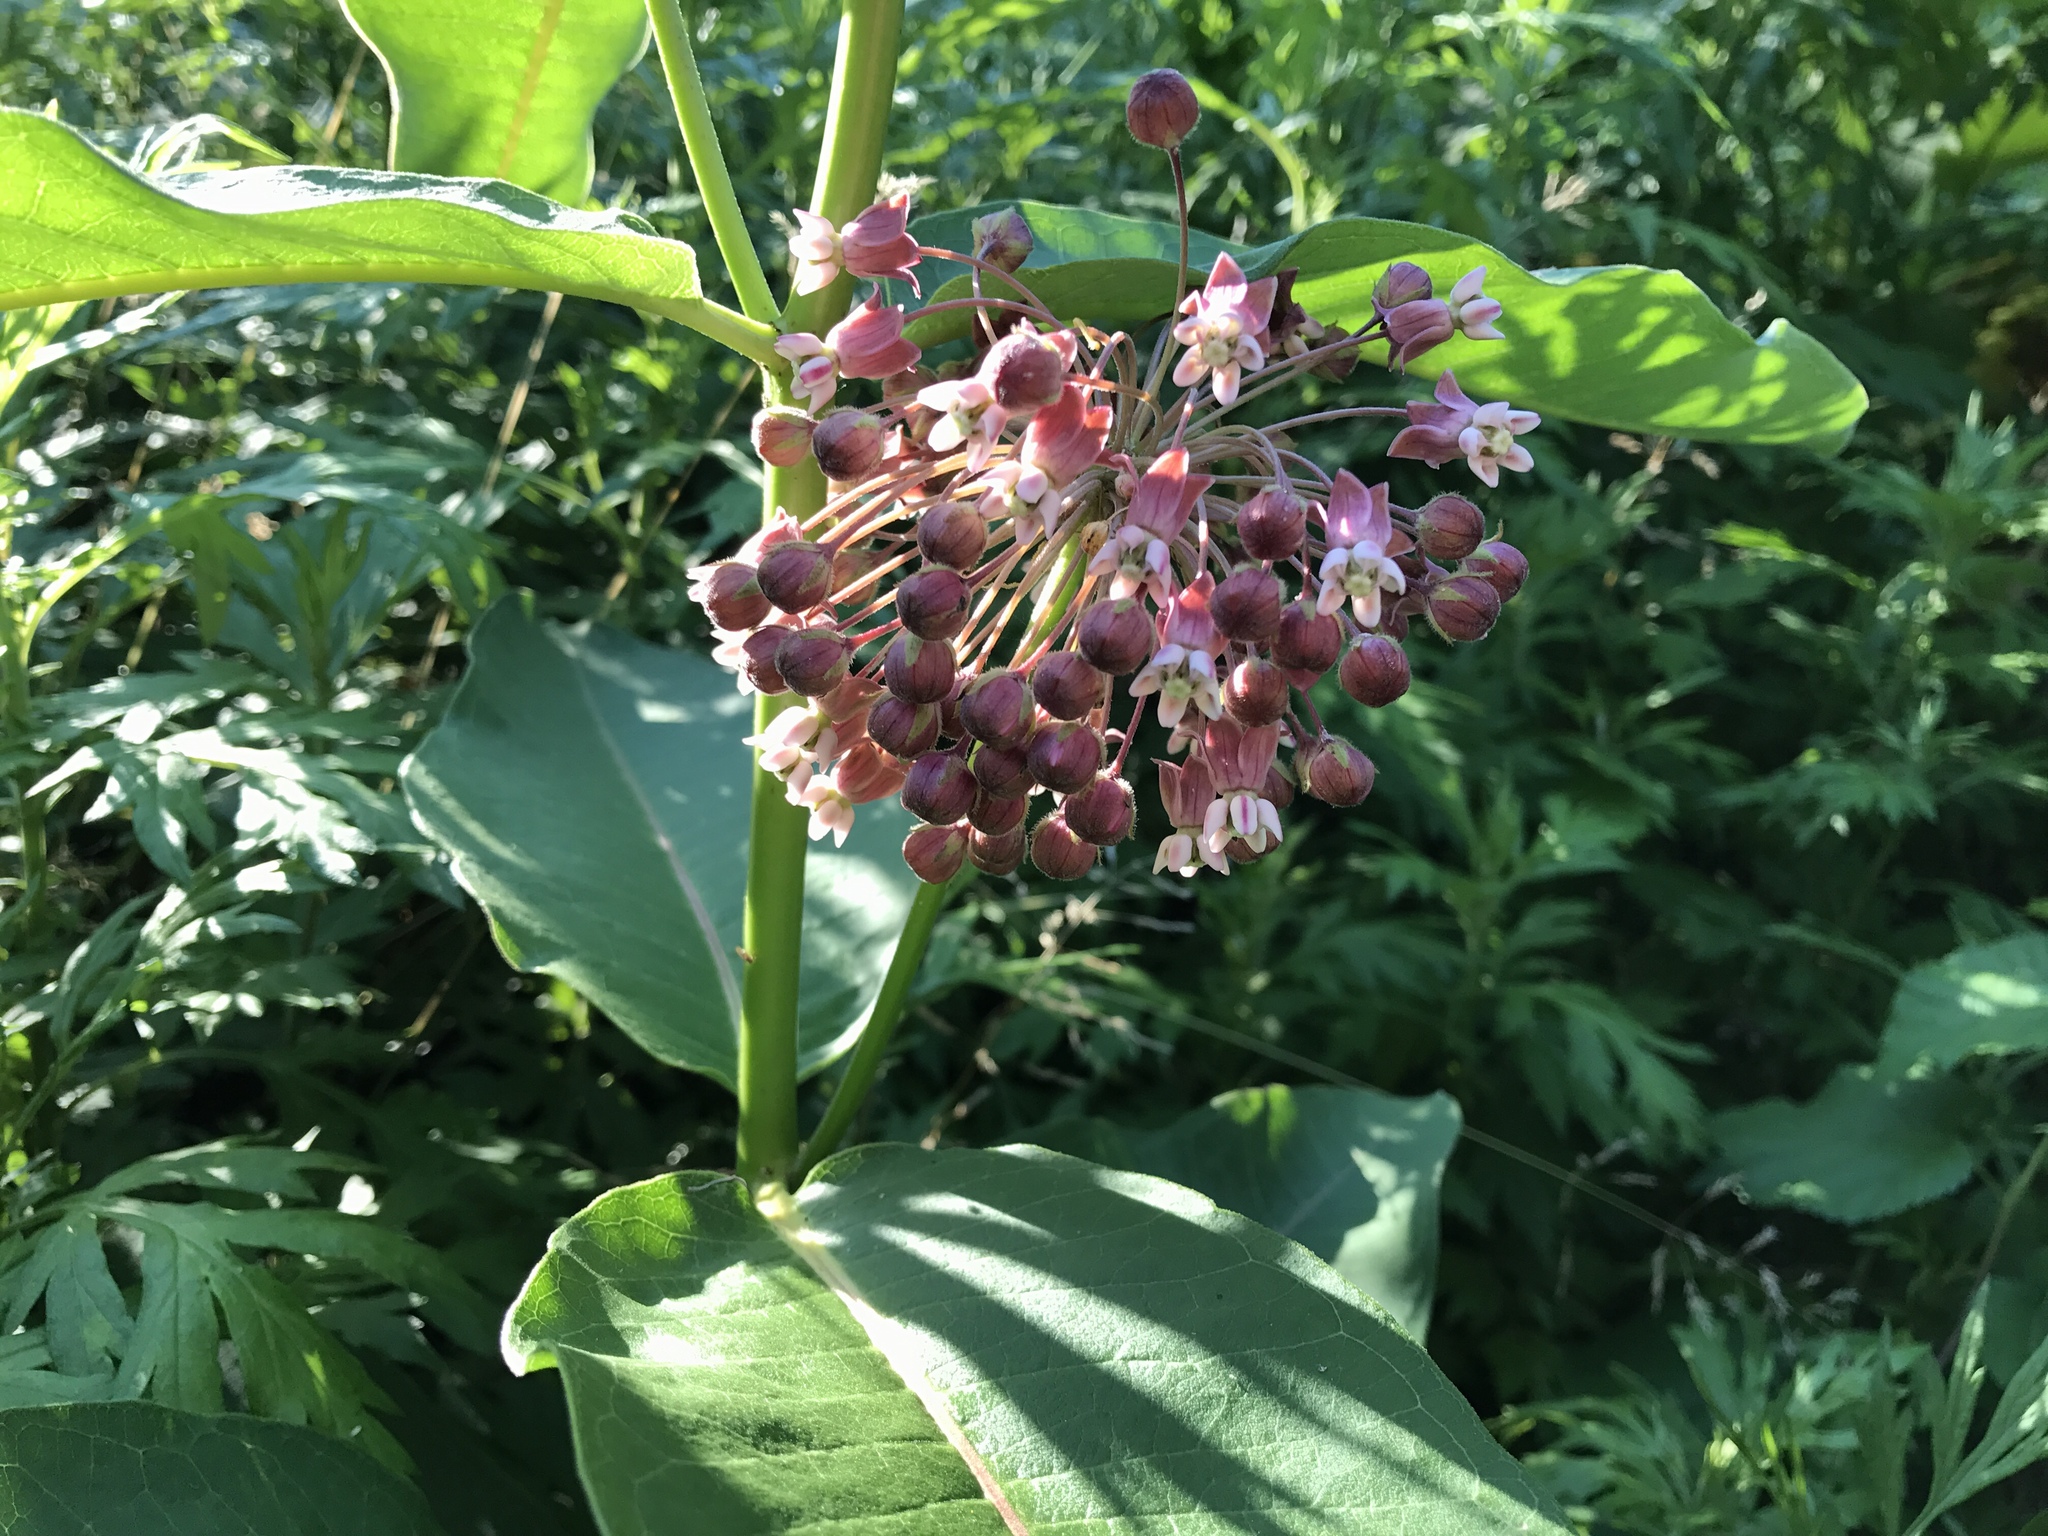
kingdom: Plantae
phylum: Tracheophyta
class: Magnoliopsida
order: Gentianales
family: Apocynaceae
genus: Asclepias
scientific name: Asclepias syriaca
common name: Common milkweed
